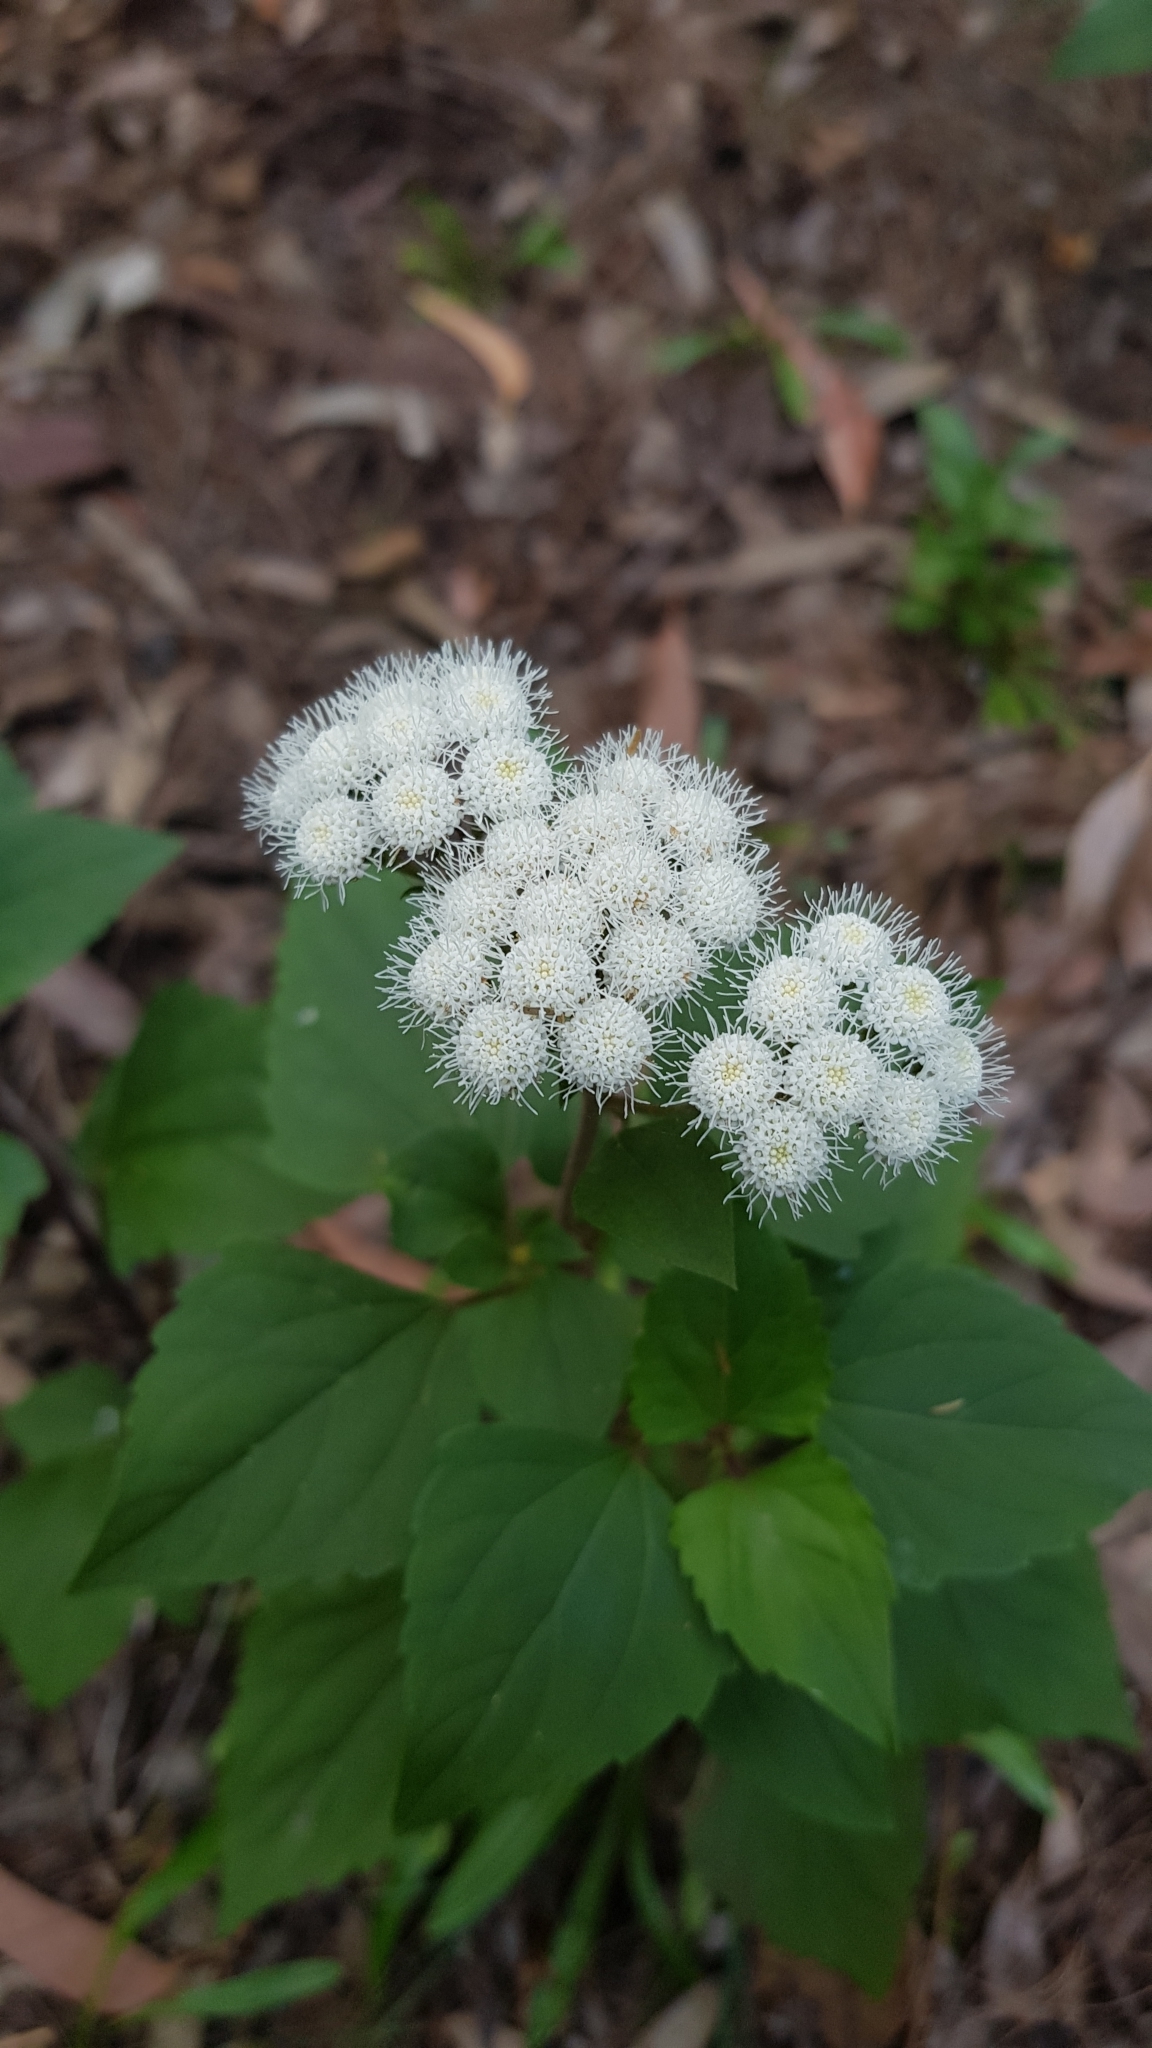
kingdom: Plantae
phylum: Tracheophyta
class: Magnoliopsida
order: Asterales
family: Asteraceae
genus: Ageratina
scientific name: Ageratina adenophora
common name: Sticky snakeroot
